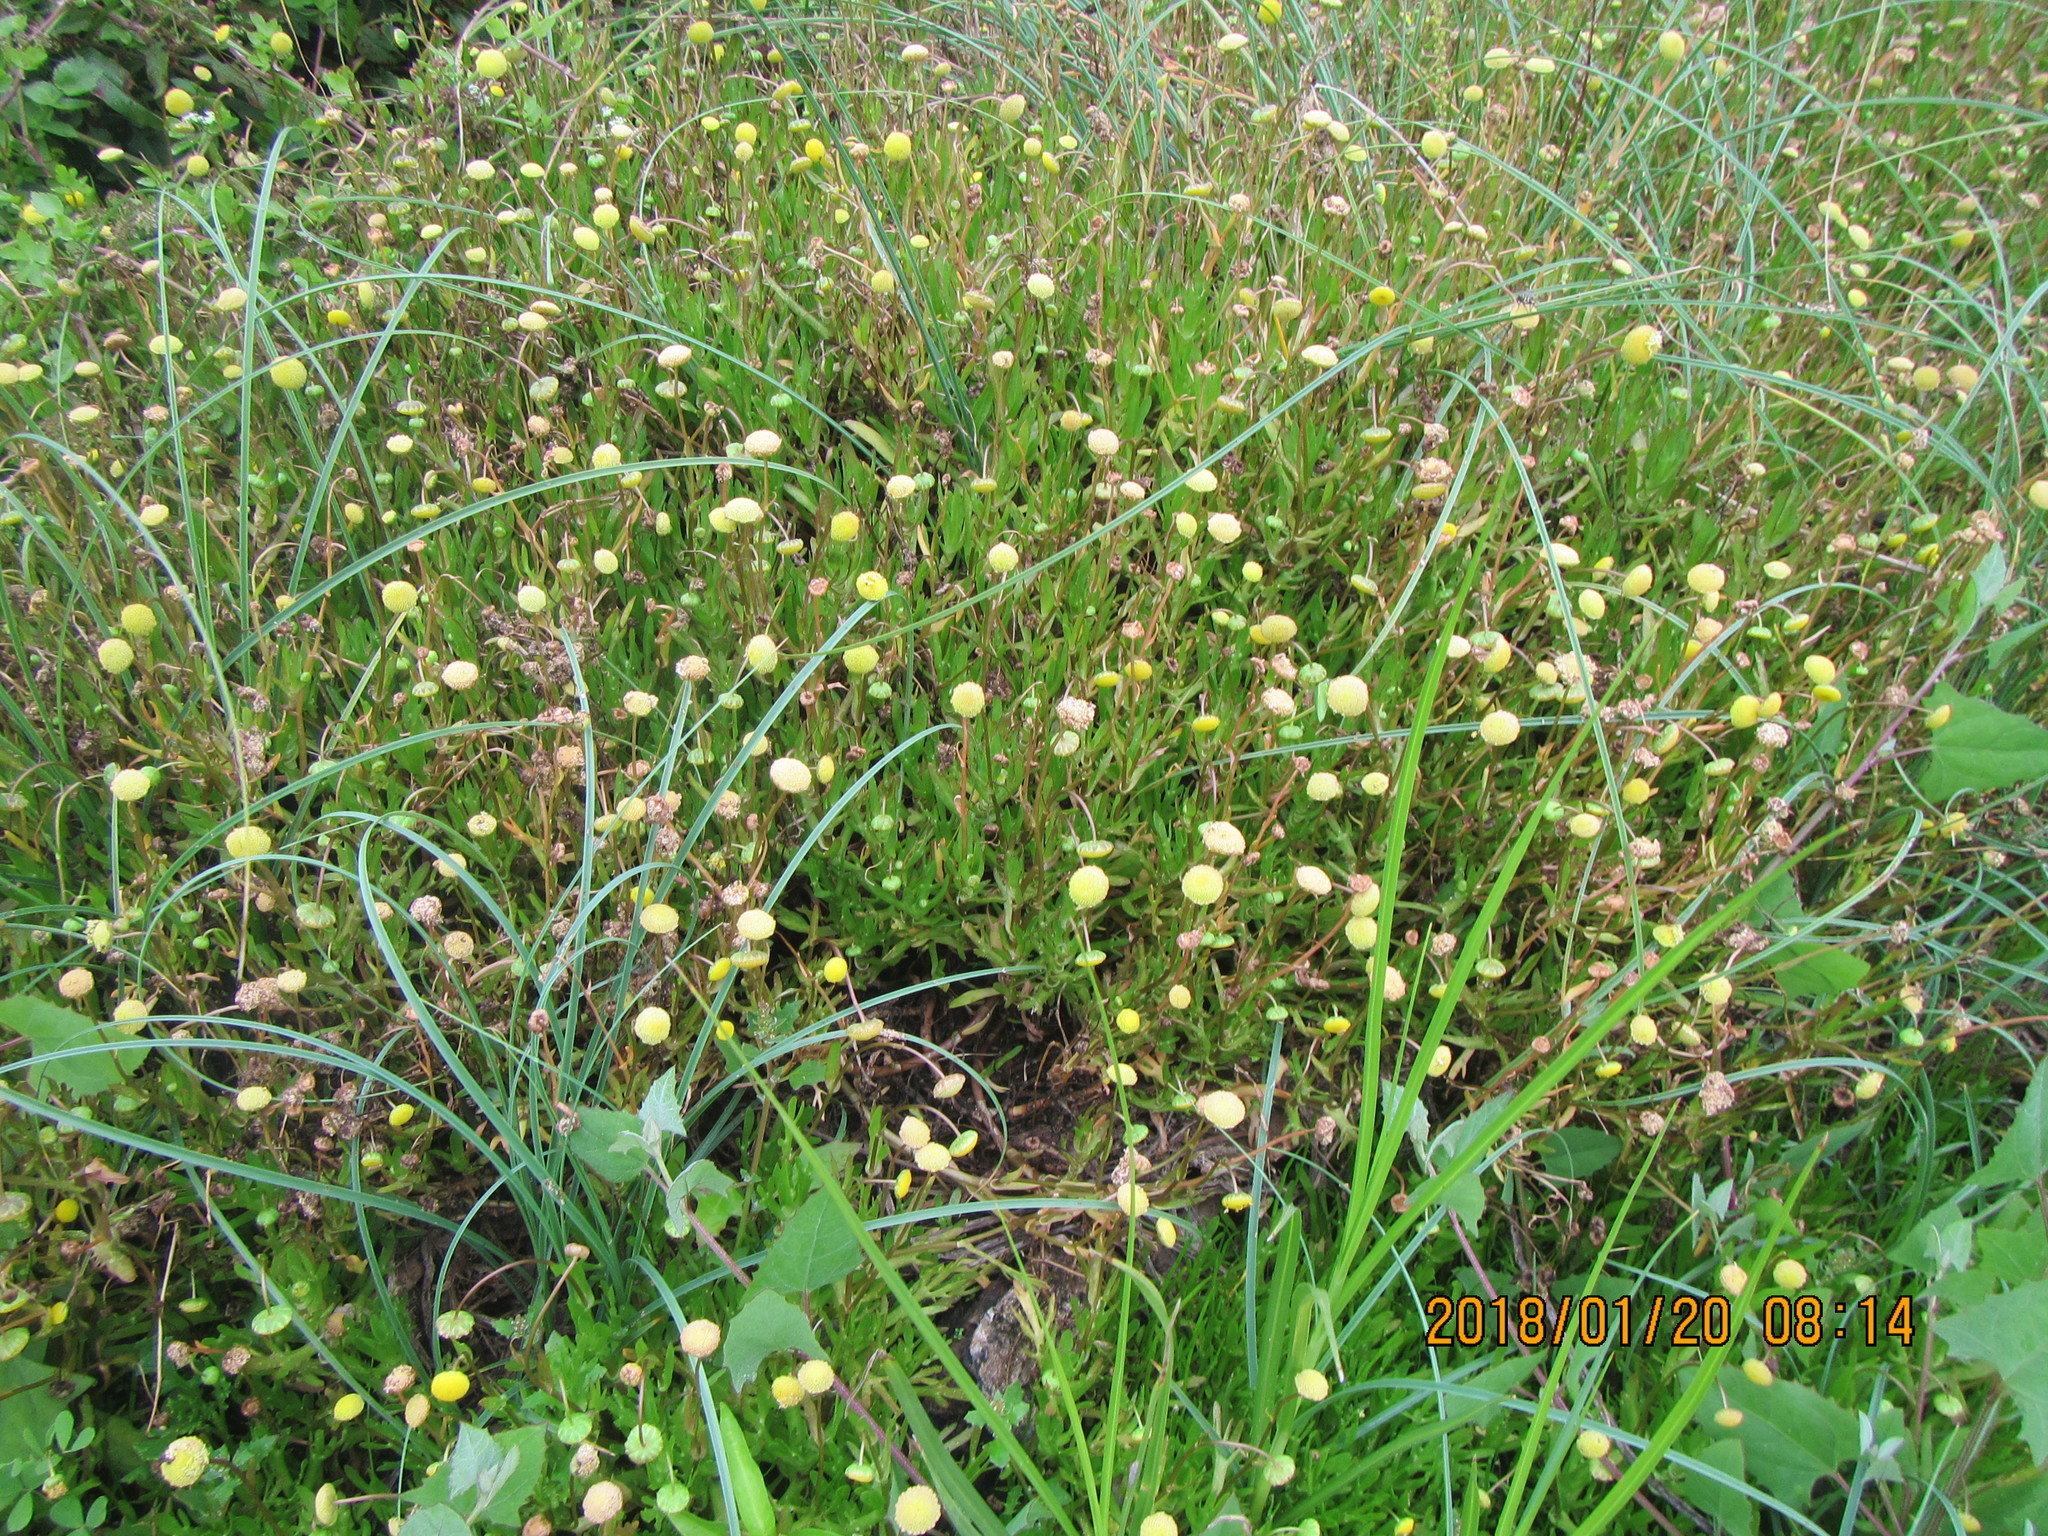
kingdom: Plantae
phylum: Tracheophyta
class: Magnoliopsida
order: Asterales
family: Asteraceae
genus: Cotula
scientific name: Cotula coronopifolia
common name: Buttonweed
